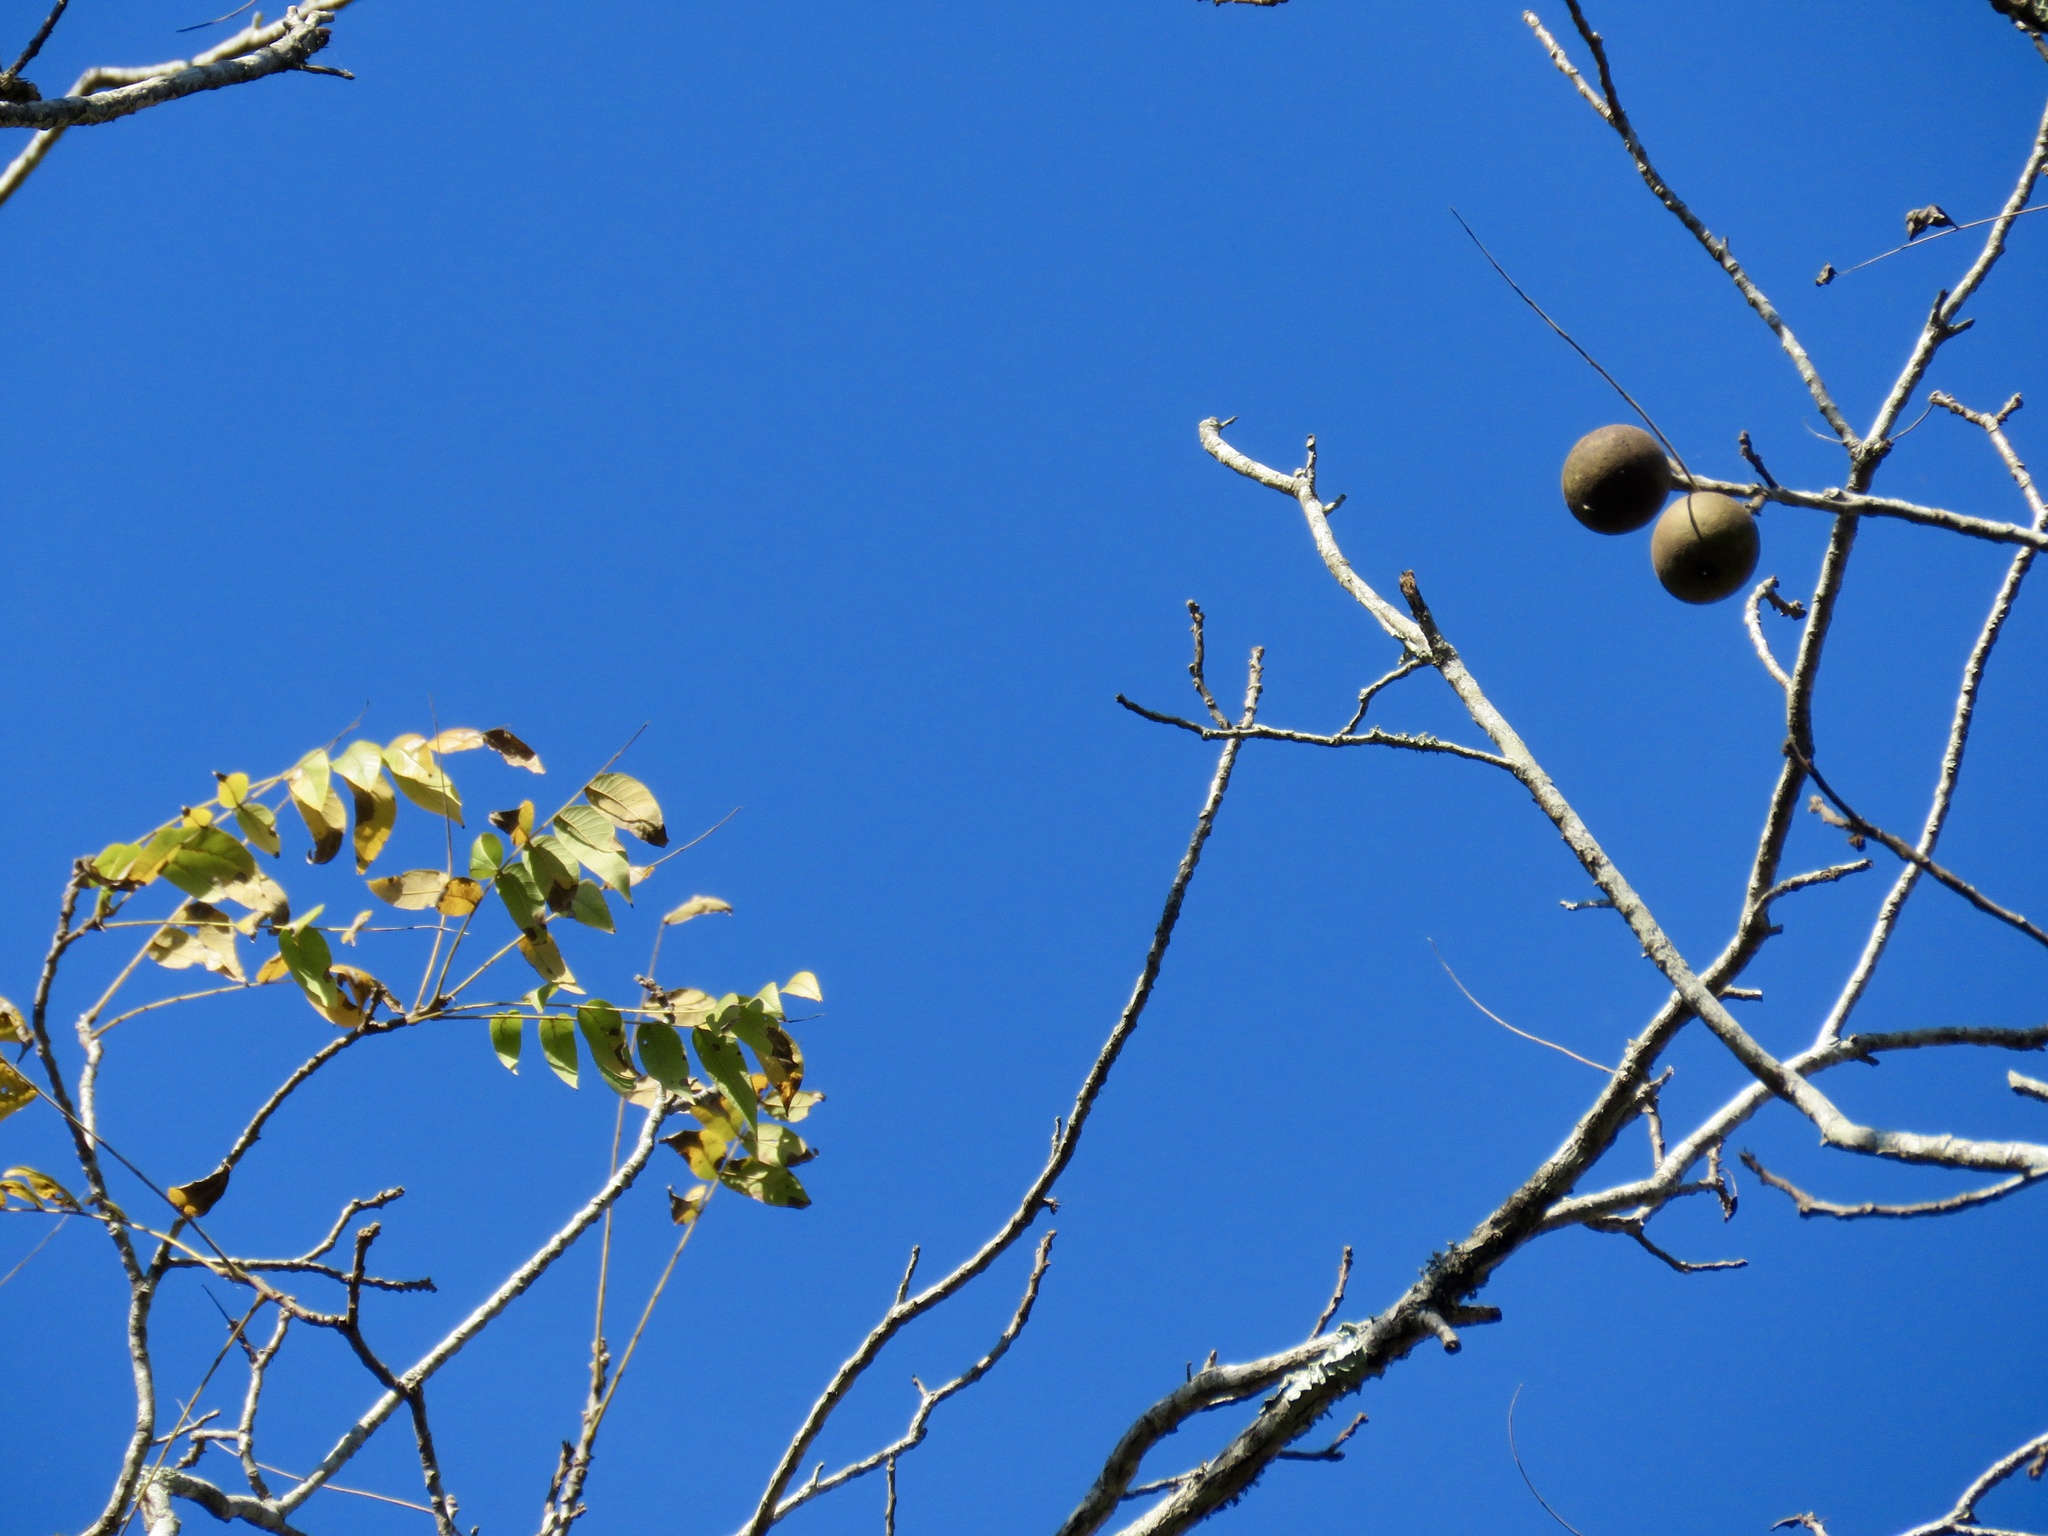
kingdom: Plantae
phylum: Tracheophyta
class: Magnoliopsida
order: Fagales
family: Juglandaceae
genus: Juglans
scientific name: Juglans nigra
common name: Black walnut
